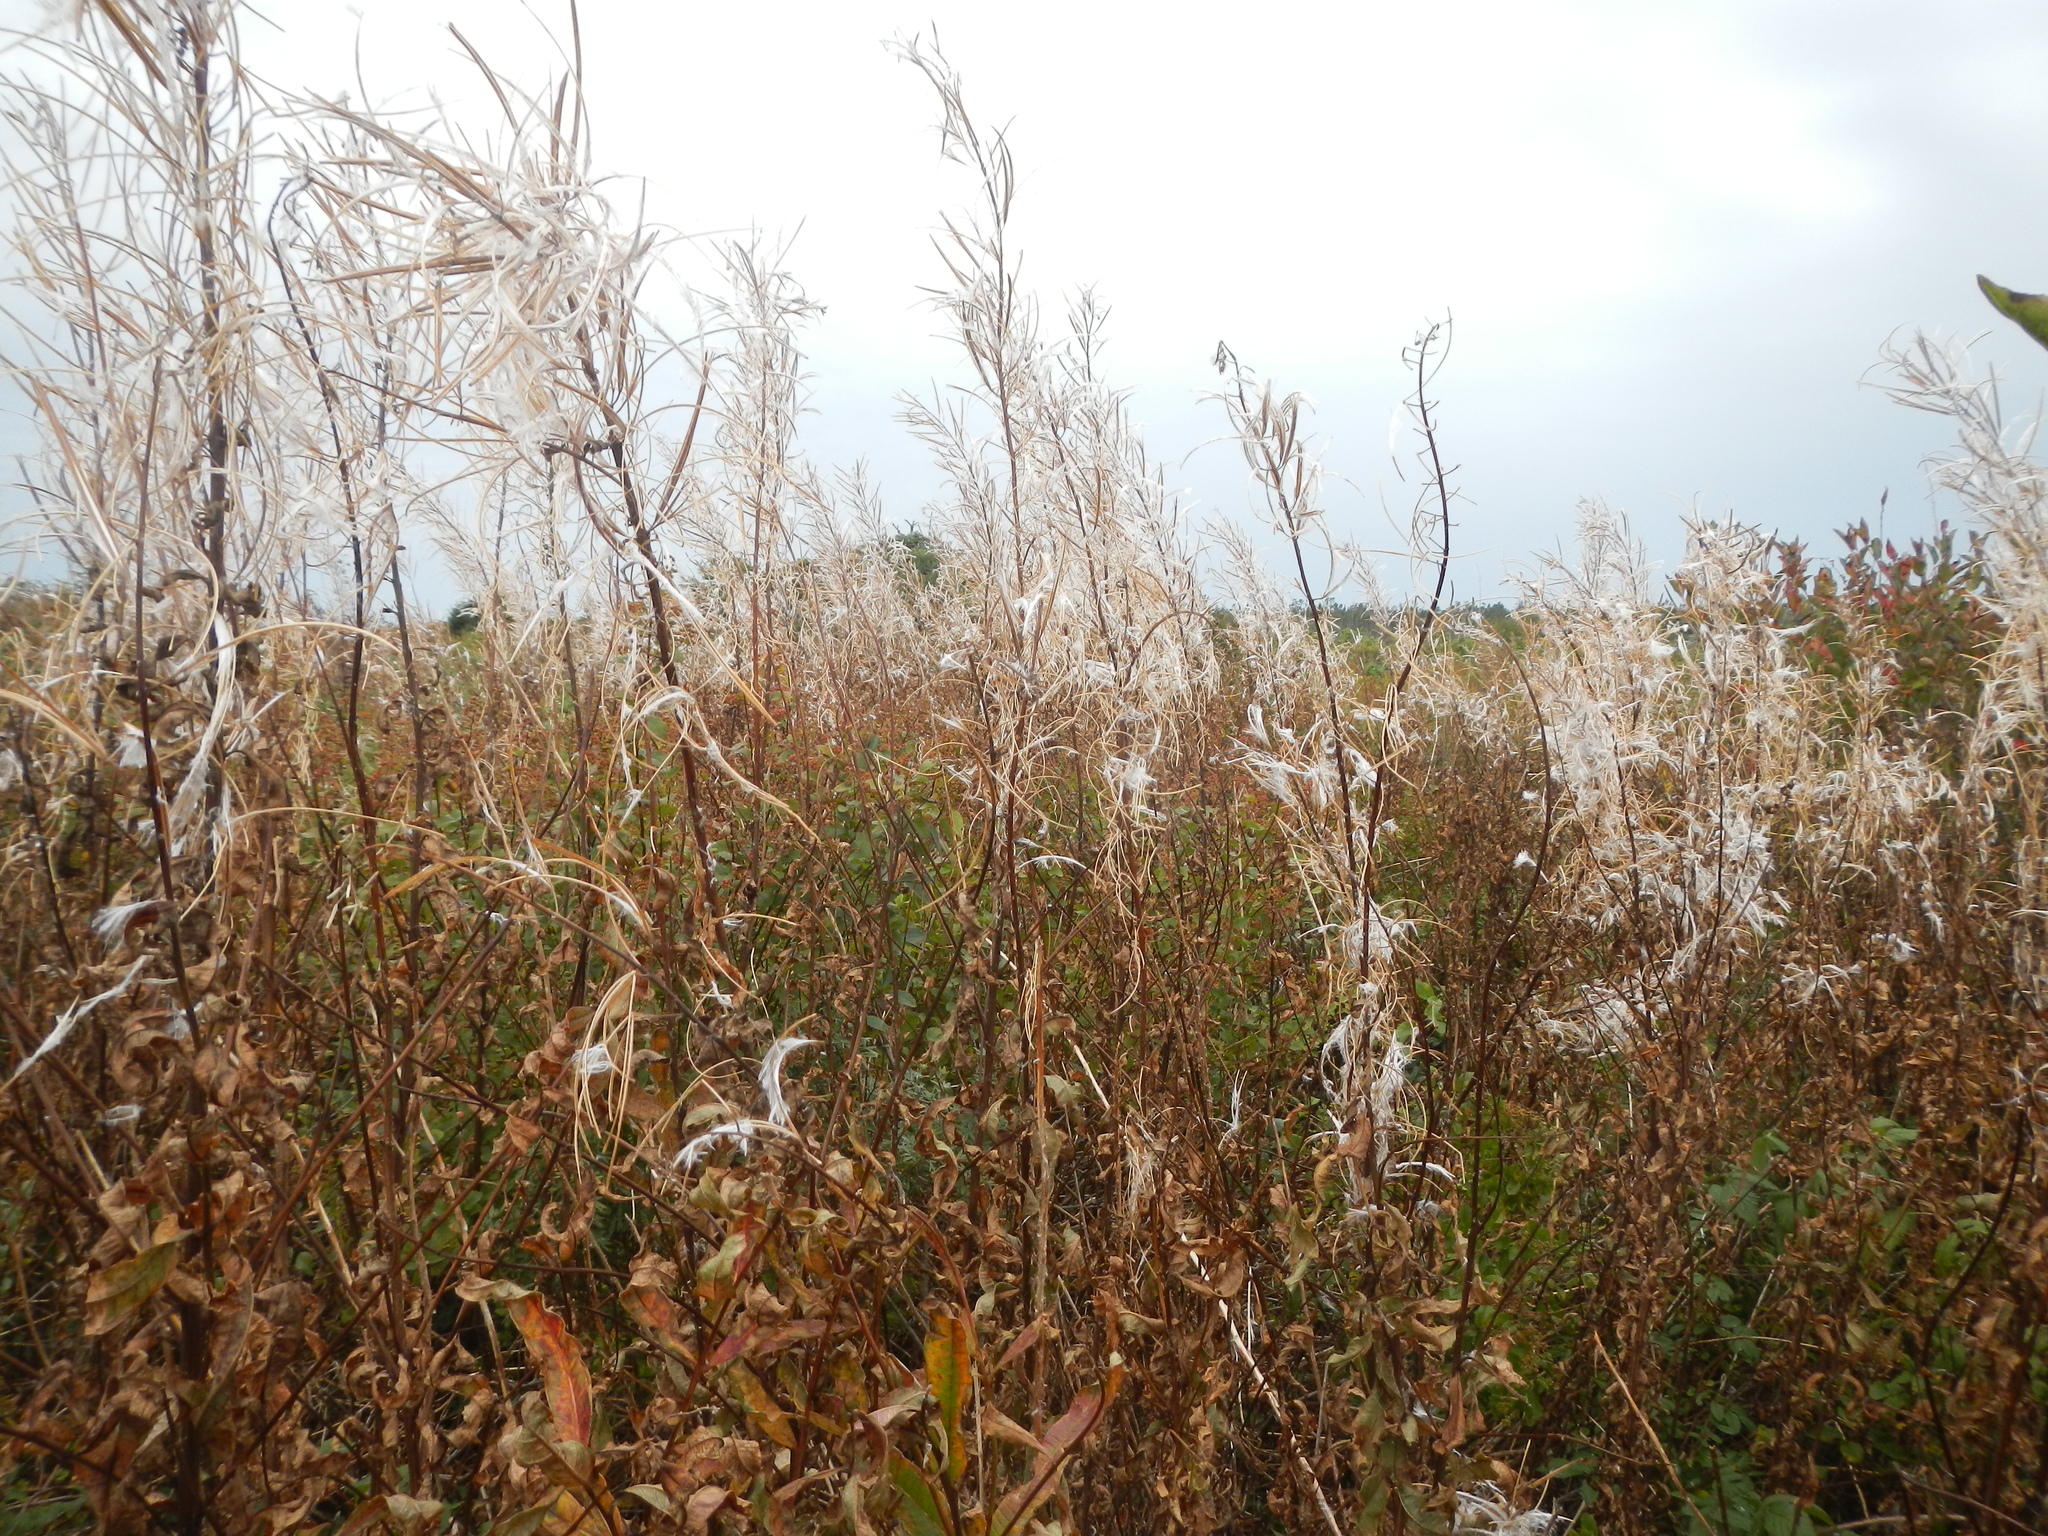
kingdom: Plantae
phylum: Tracheophyta
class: Magnoliopsida
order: Myrtales
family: Onagraceae
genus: Chamaenerion
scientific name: Chamaenerion angustifolium
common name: Fireweed
